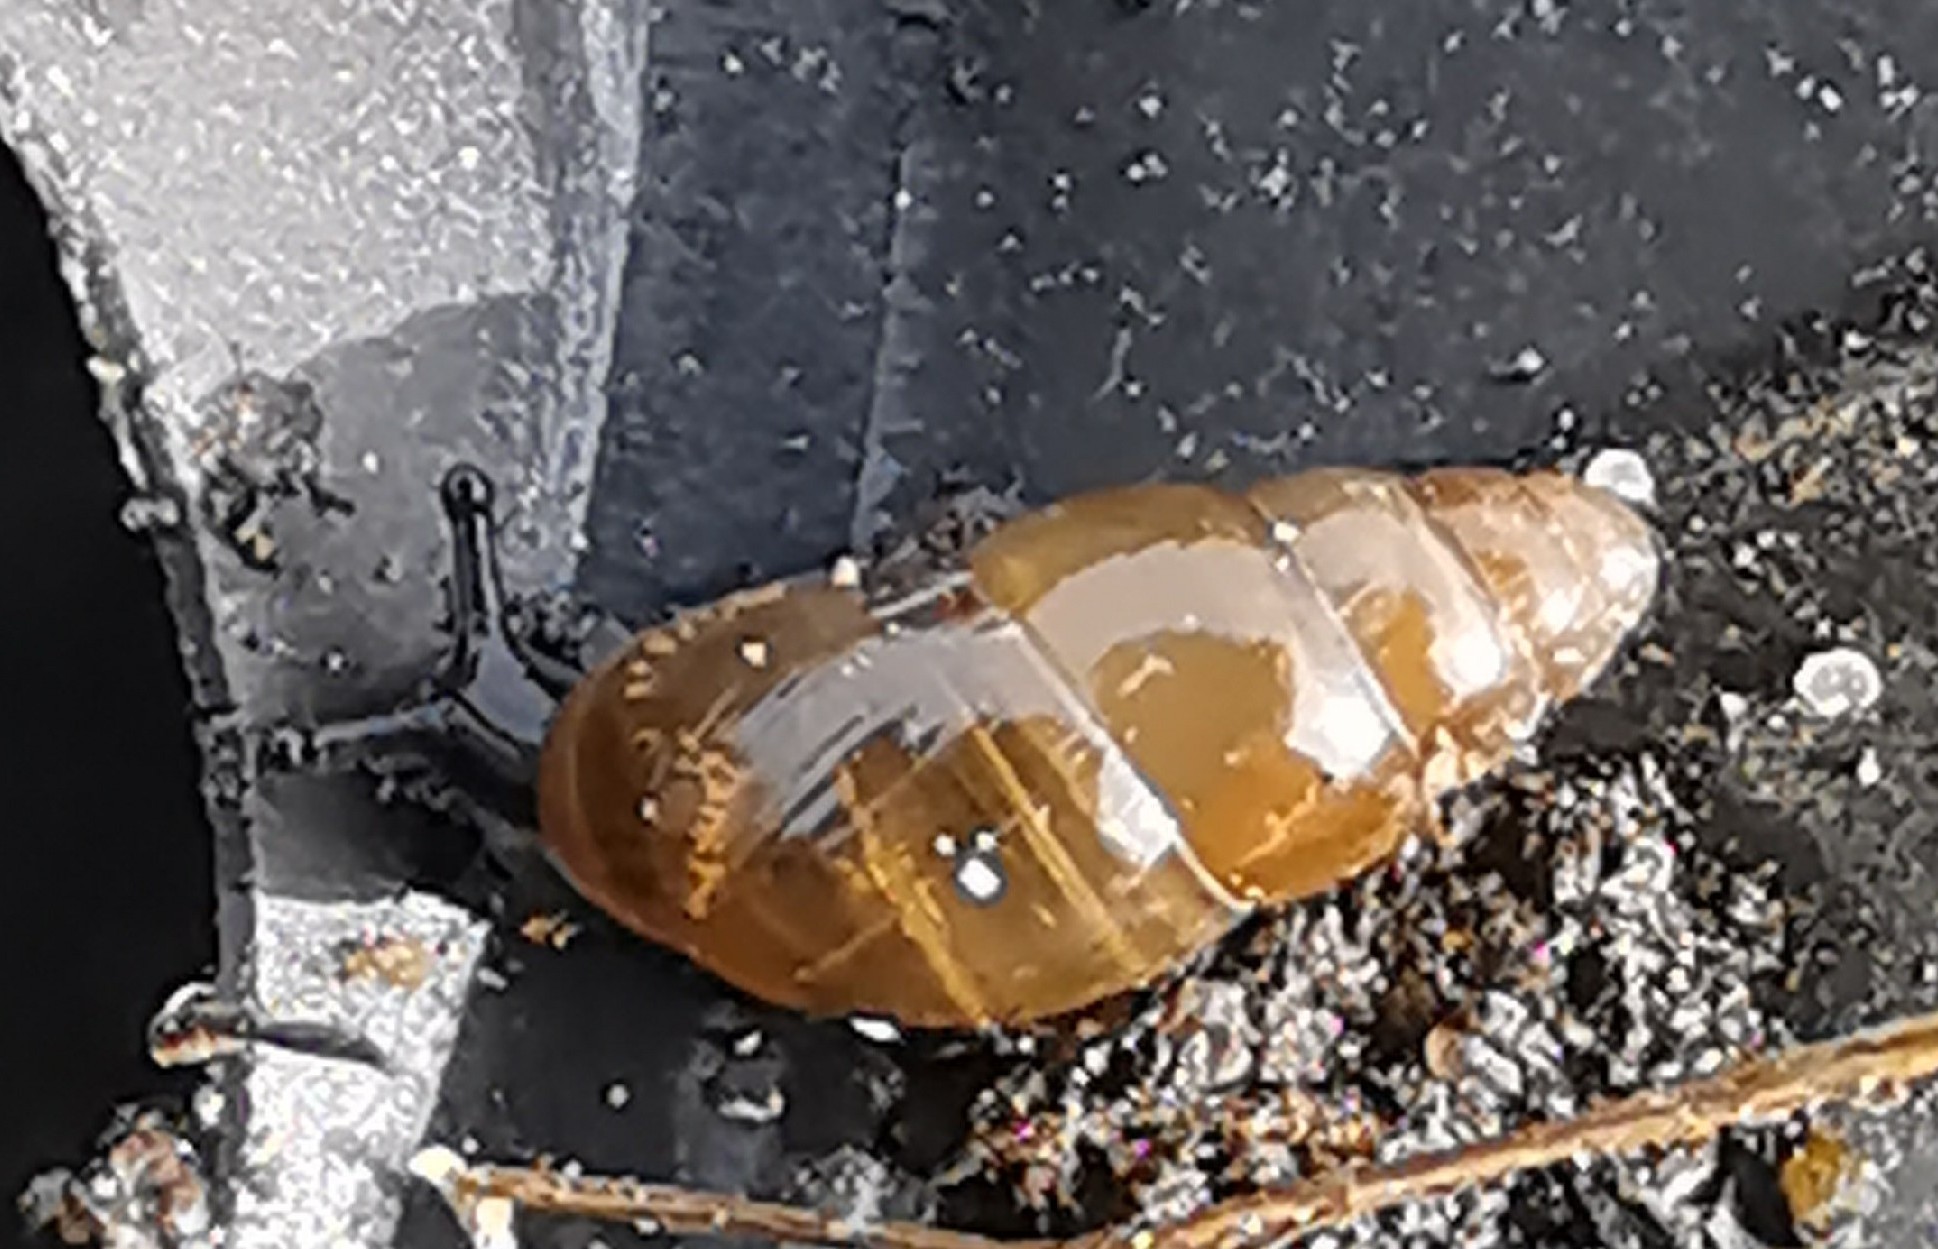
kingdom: Animalia
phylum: Mollusca
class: Gastropoda
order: Stylommatophora
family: Cochlicopidae
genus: Cochlicopa
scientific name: Cochlicopa lubrica
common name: Glossy pillar snail
